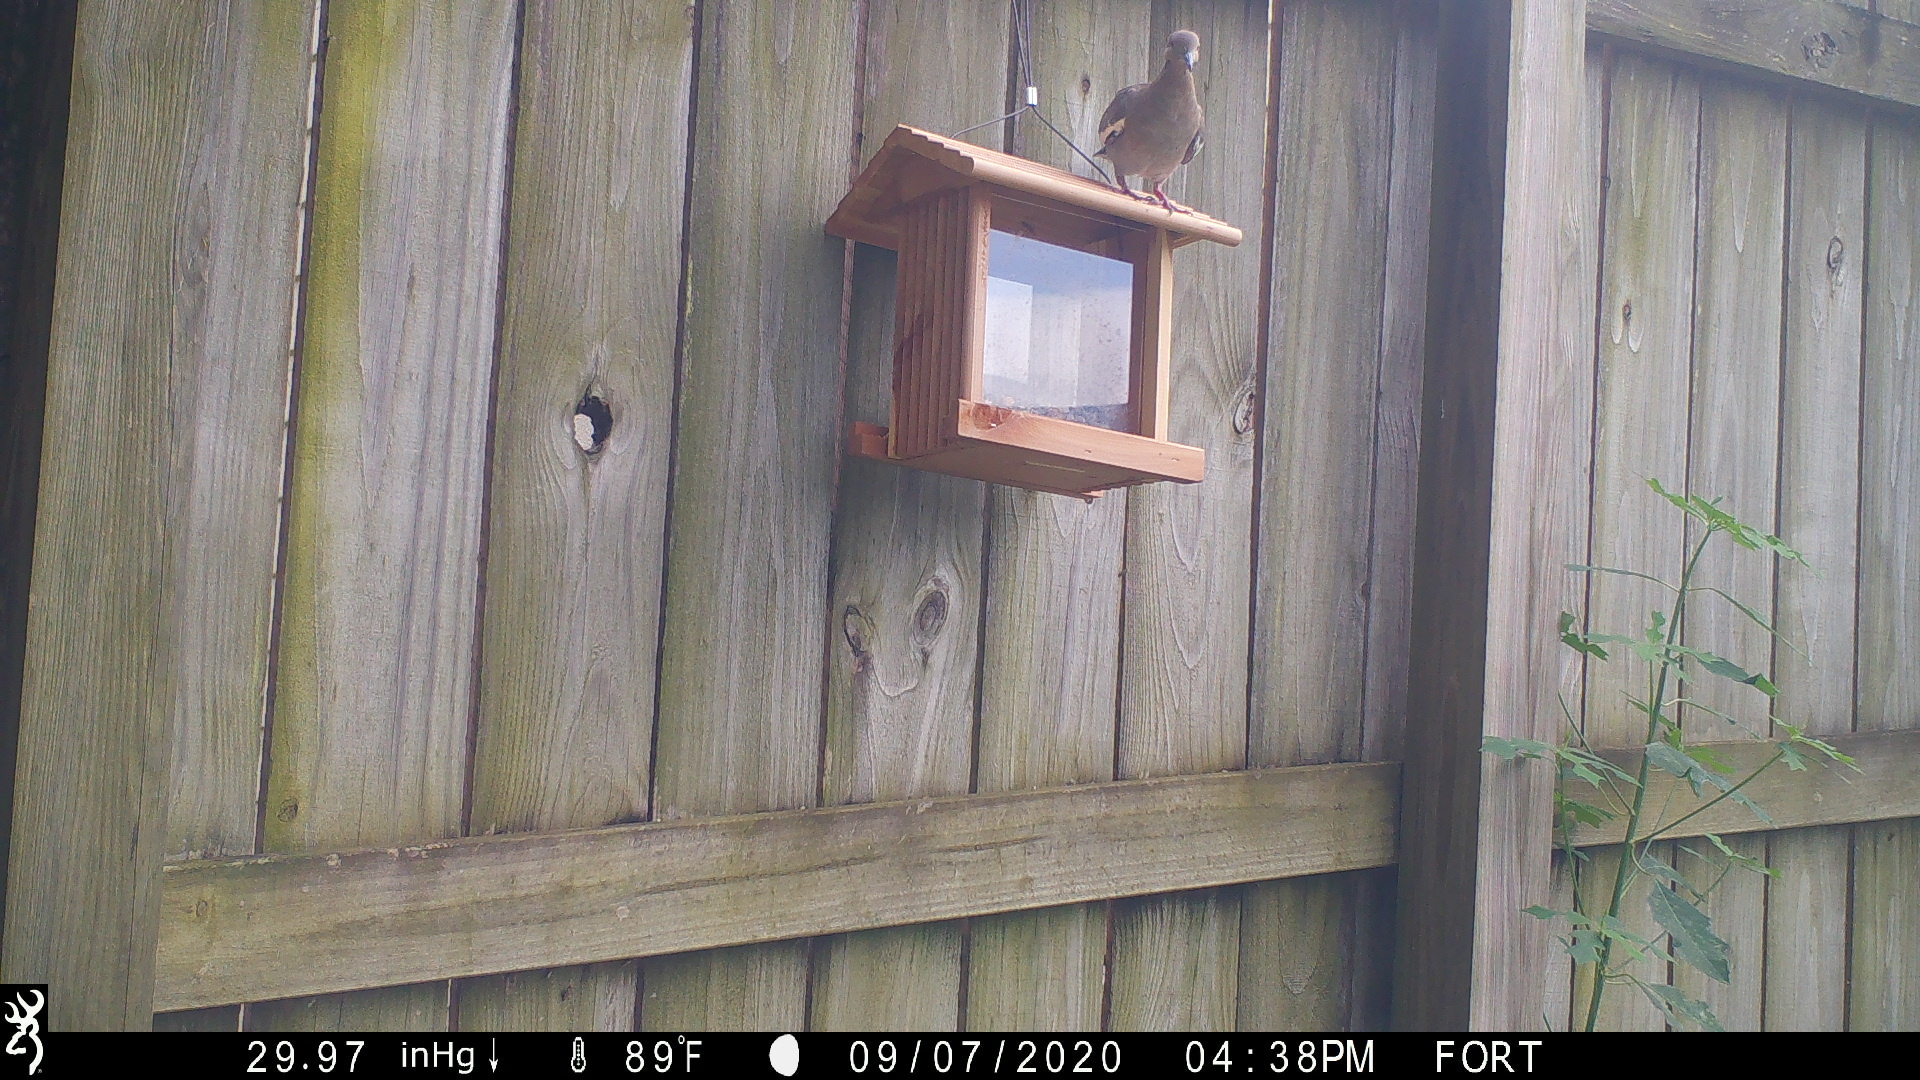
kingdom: Animalia
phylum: Chordata
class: Aves
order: Columbiformes
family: Columbidae
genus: Zenaida
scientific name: Zenaida asiatica
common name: White-winged dove
